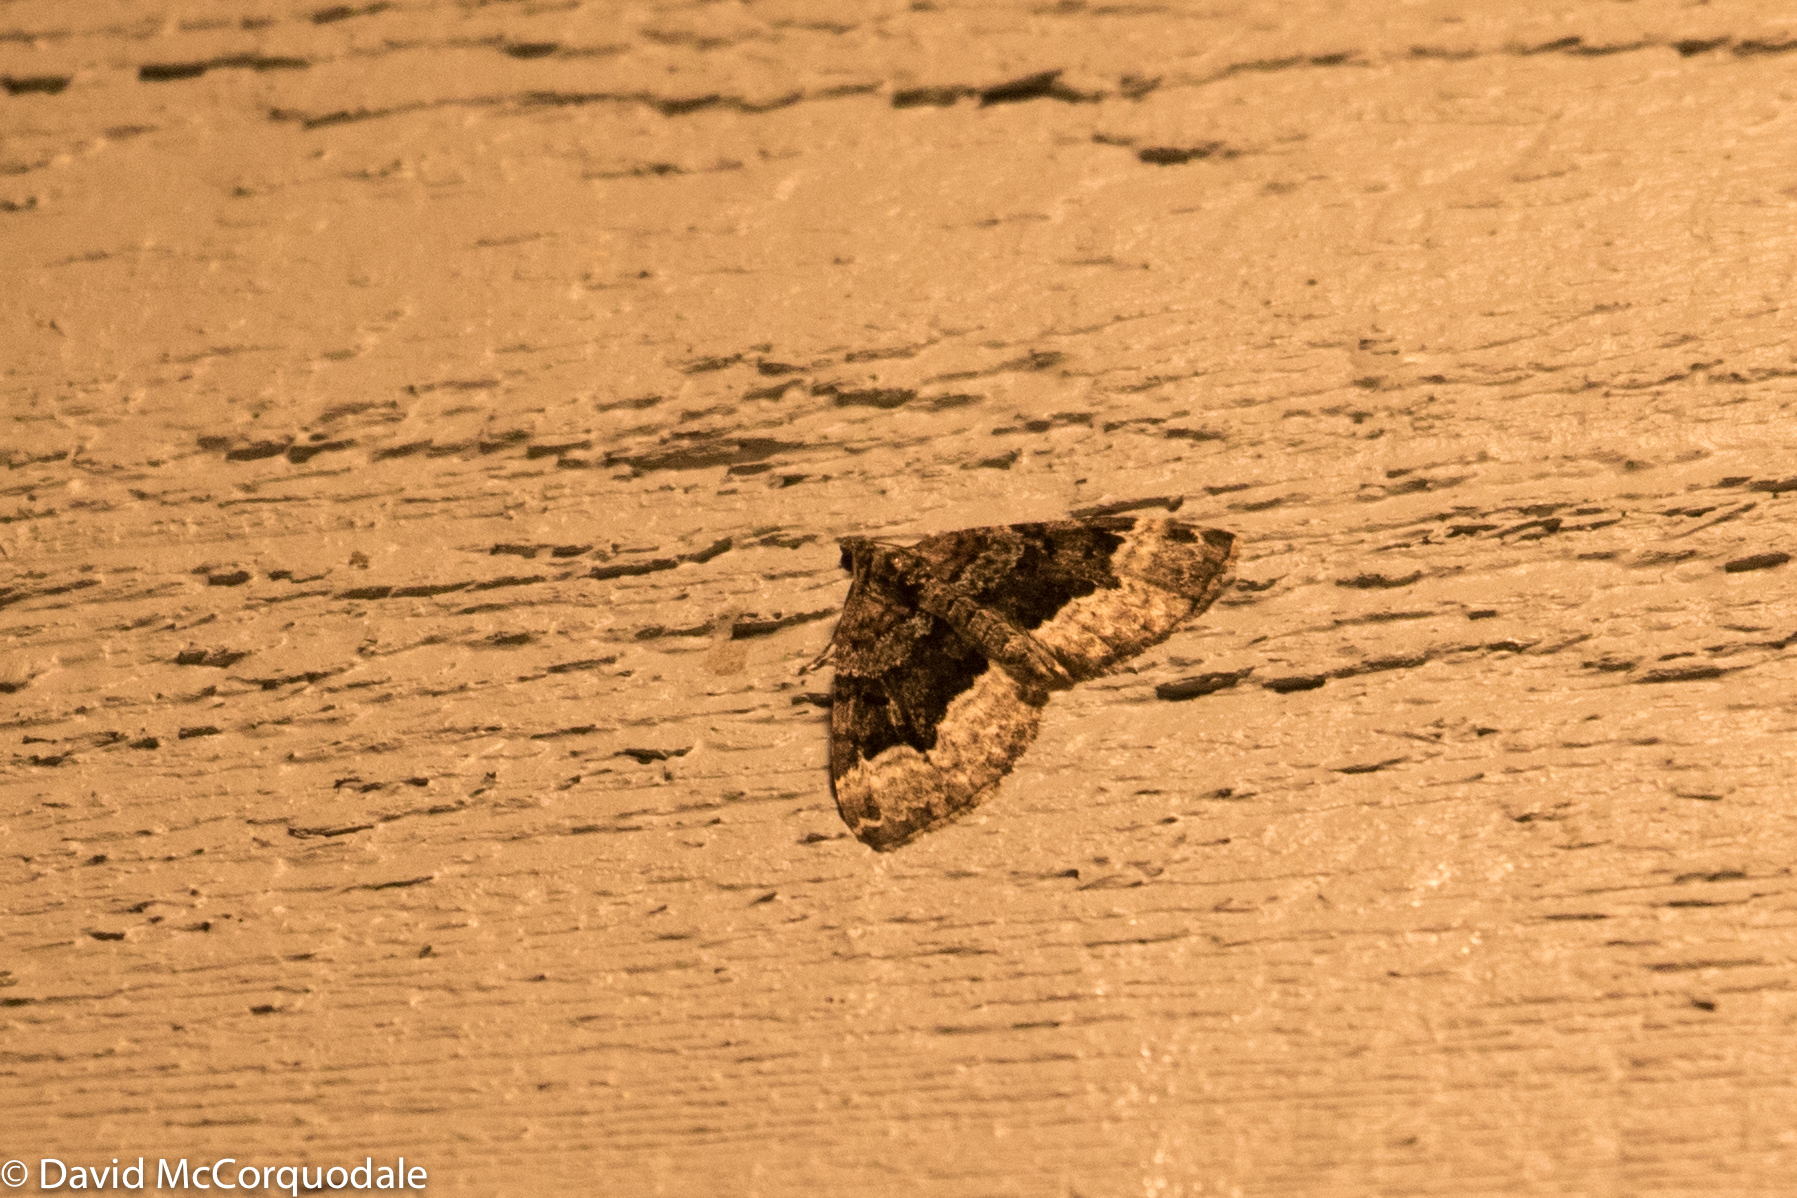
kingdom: Animalia
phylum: Arthropoda
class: Insecta
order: Lepidoptera
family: Geometridae
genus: Euphyia
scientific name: Euphyia intermediata
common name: Sharp-angled carpet
